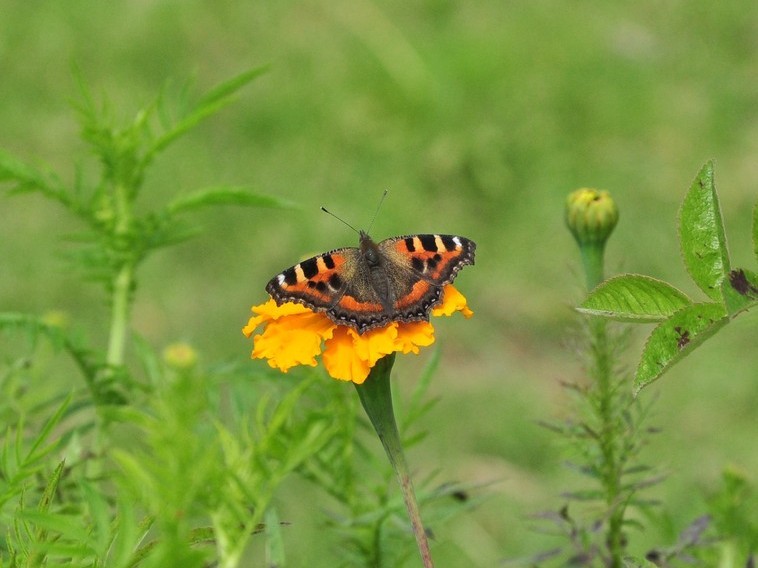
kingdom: Animalia
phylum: Arthropoda
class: Insecta
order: Lepidoptera
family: Nymphalidae
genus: Aglais
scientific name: Aglais caschmirensis
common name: Indian tortoiseshell
